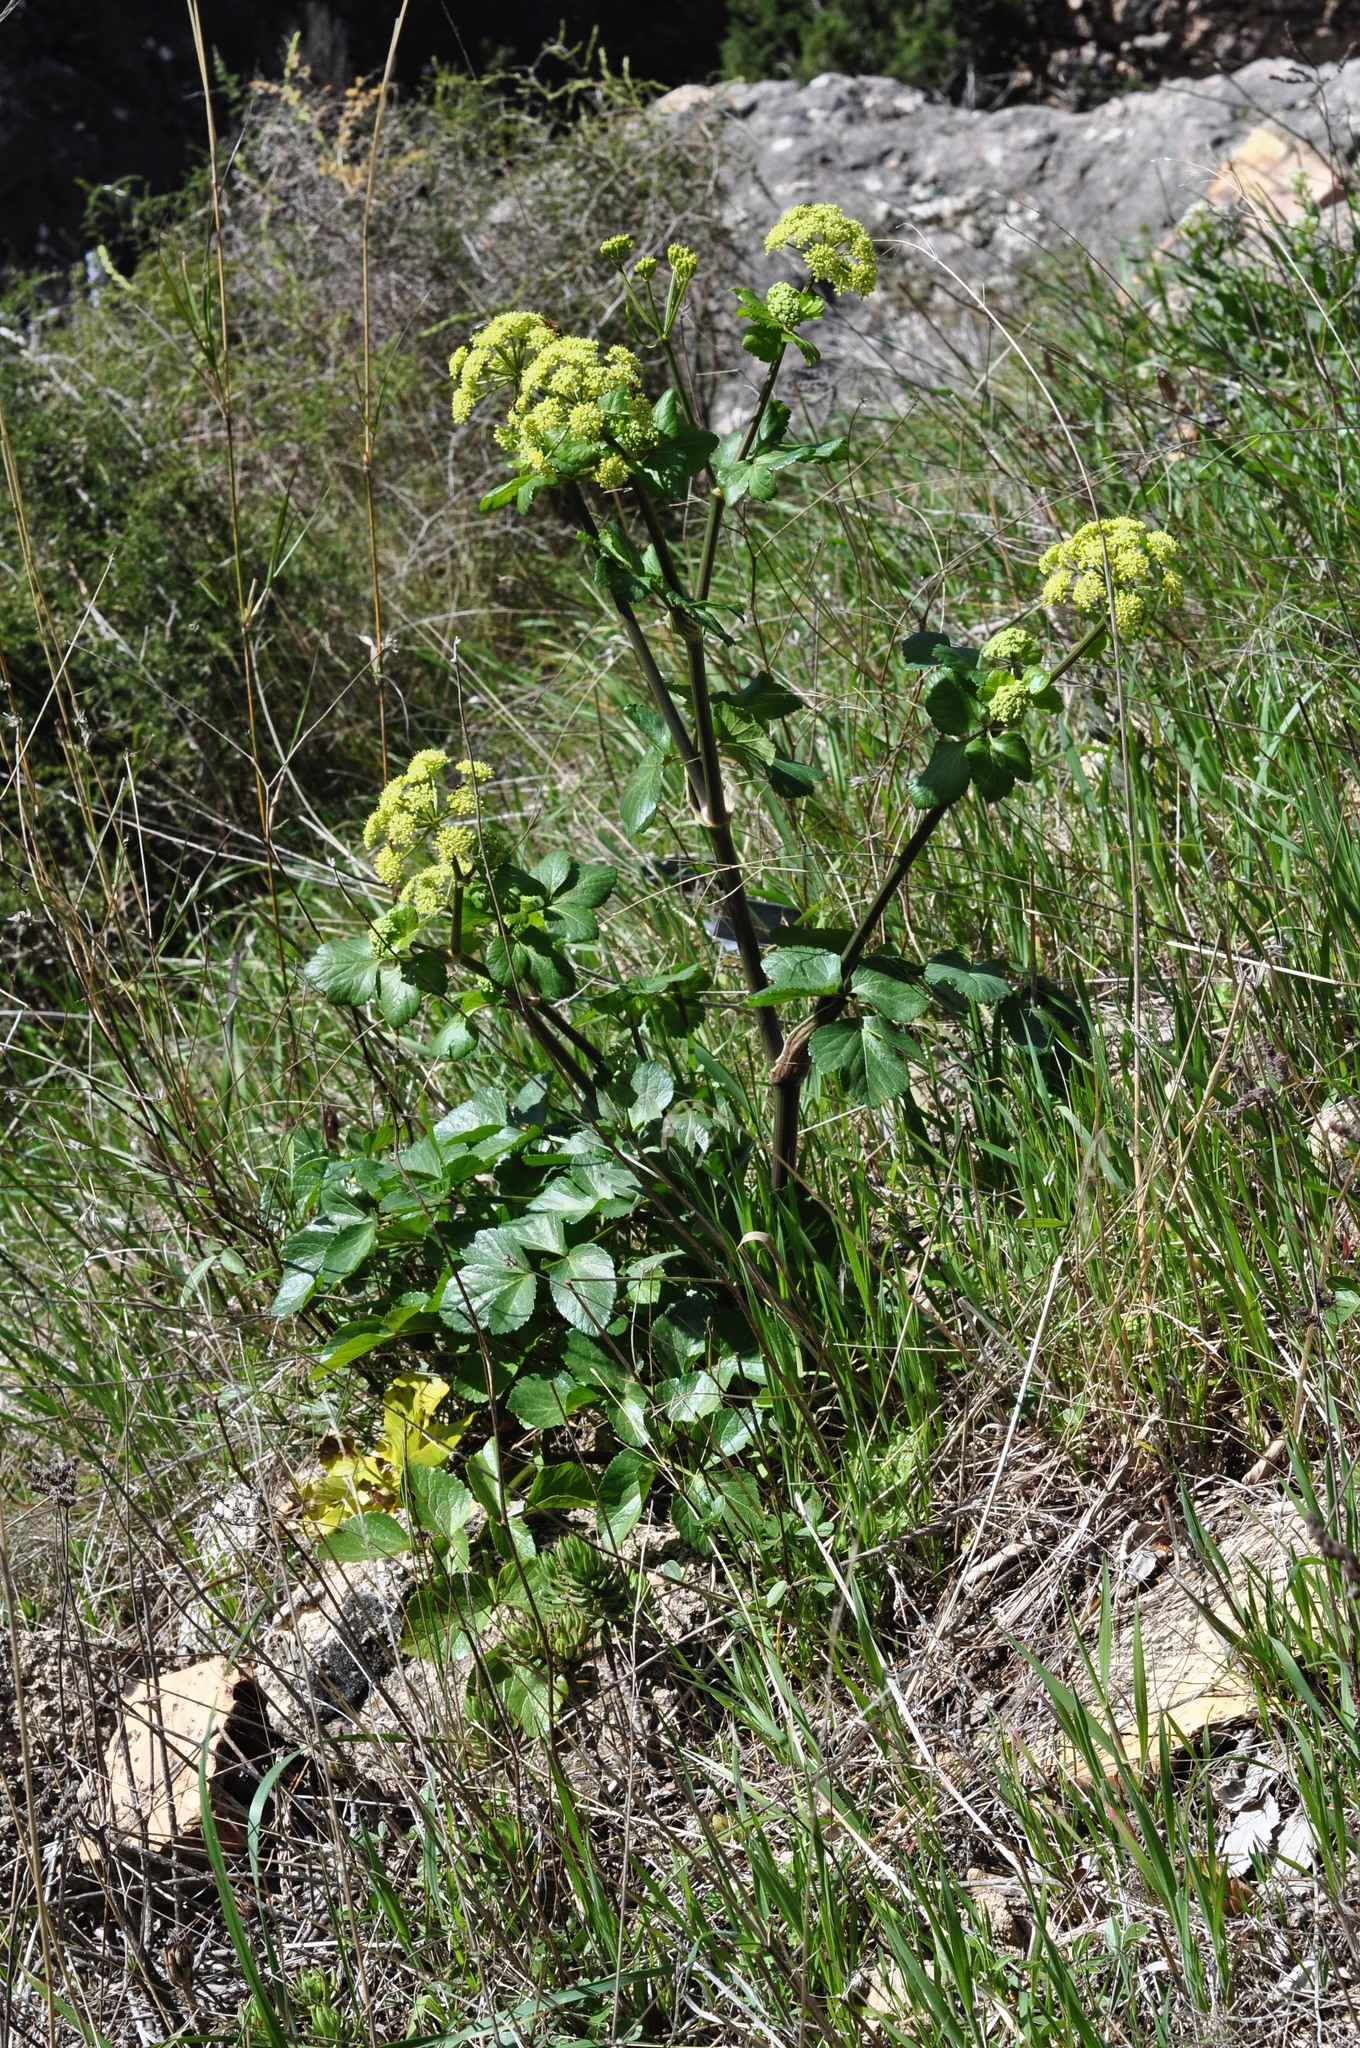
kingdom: Plantae
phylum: Tracheophyta
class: Magnoliopsida
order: Apiales
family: Apiaceae
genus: Smyrnium
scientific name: Smyrnium olusatrum
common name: Alexanders
